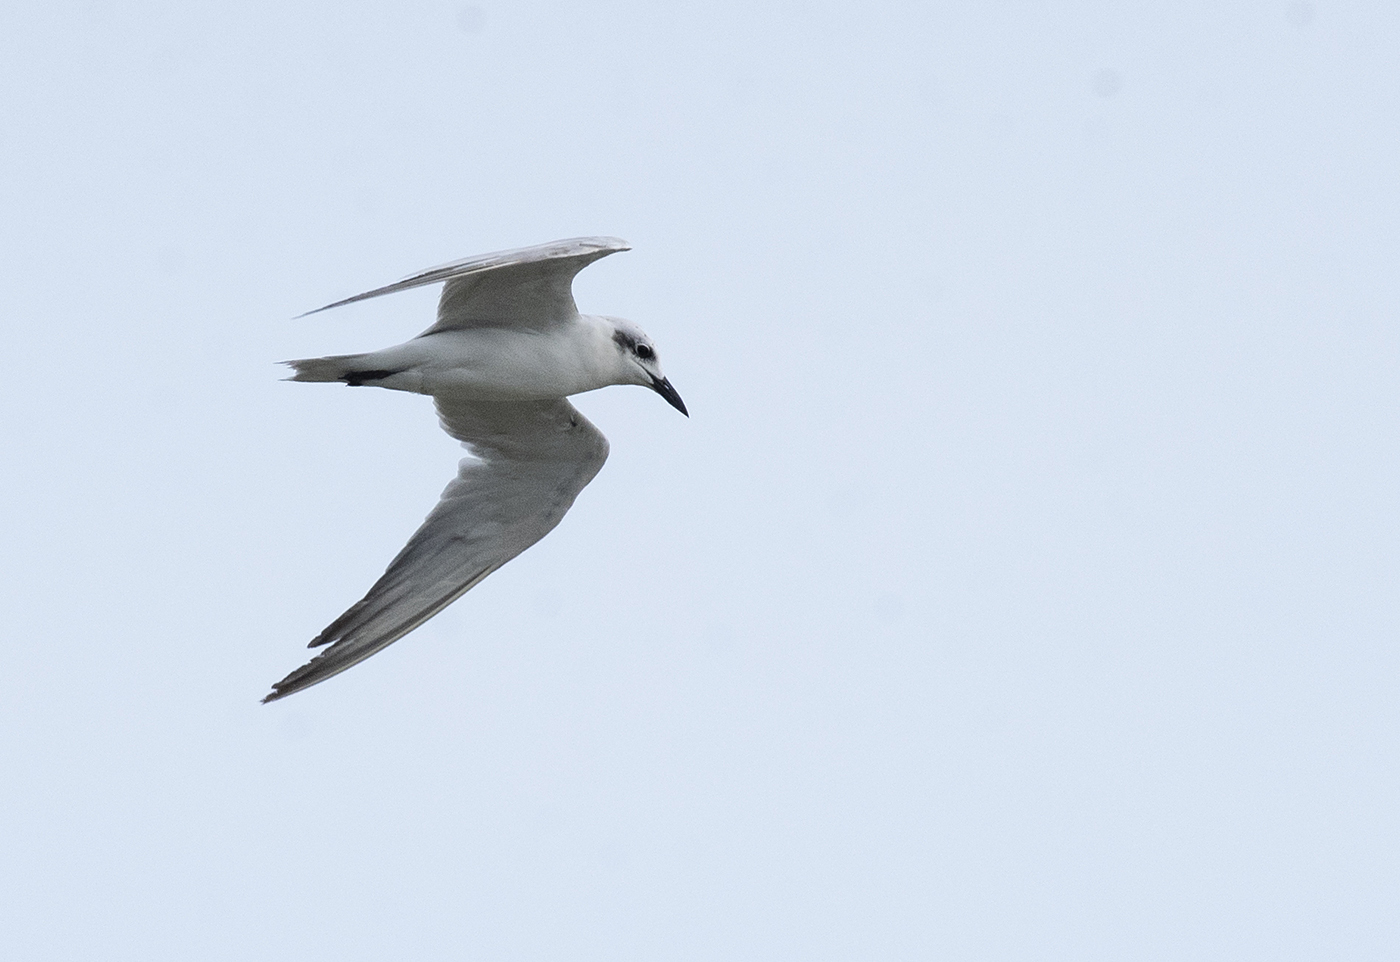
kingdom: Animalia
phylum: Chordata
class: Aves
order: Charadriiformes
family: Laridae
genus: Gelochelidon
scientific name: Gelochelidon nilotica
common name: Gull-billed tern
